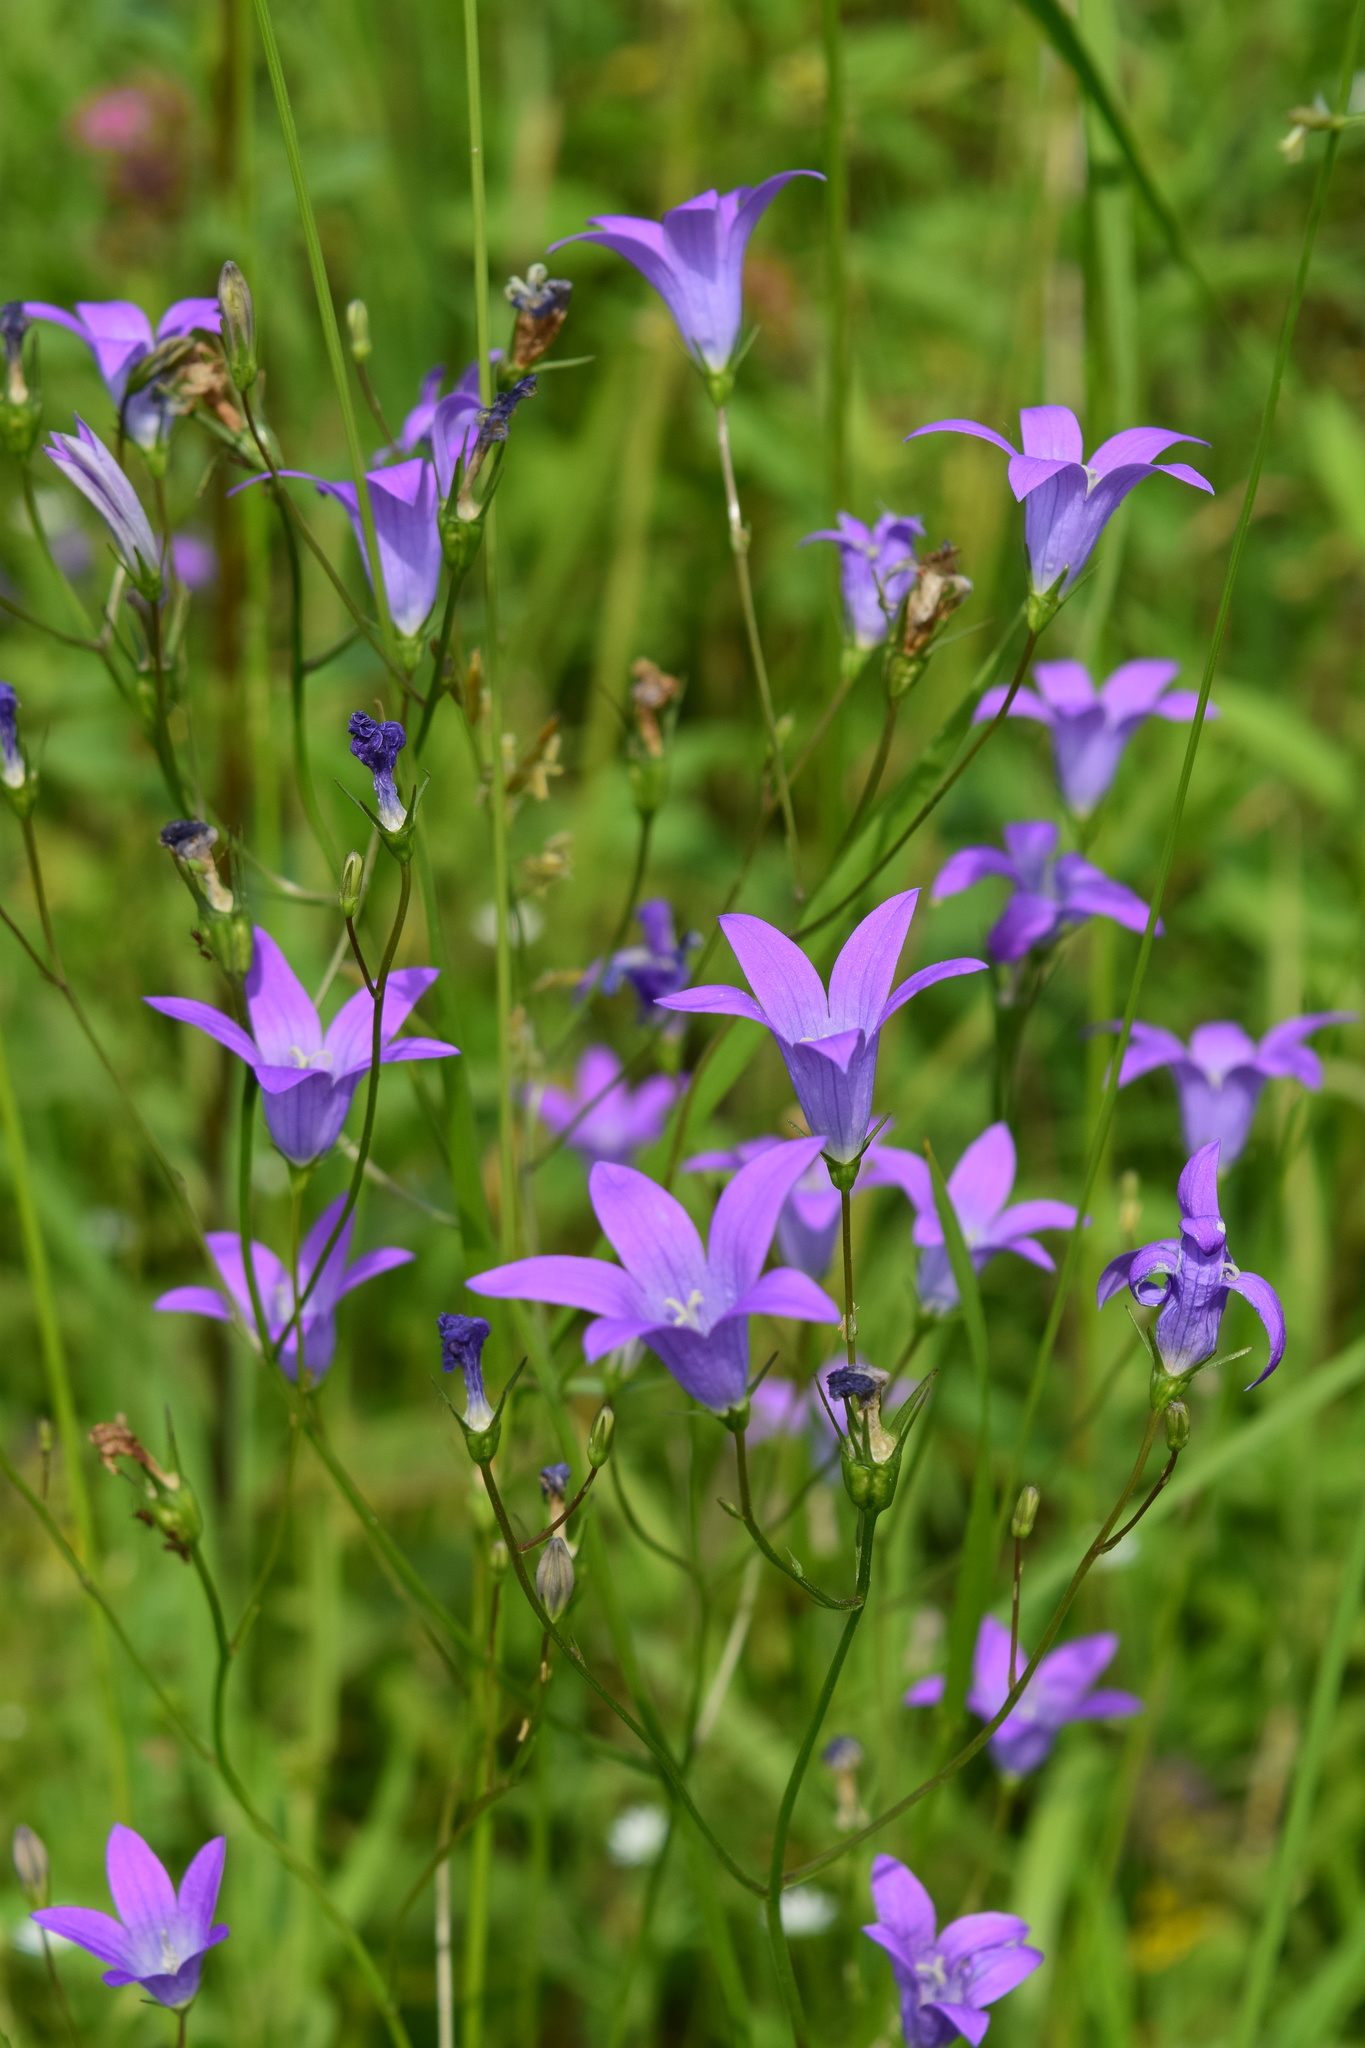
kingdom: Plantae
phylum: Tracheophyta
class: Magnoliopsida
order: Asterales
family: Campanulaceae
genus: Campanula
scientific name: Campanula patula
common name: Spreading bellflower
